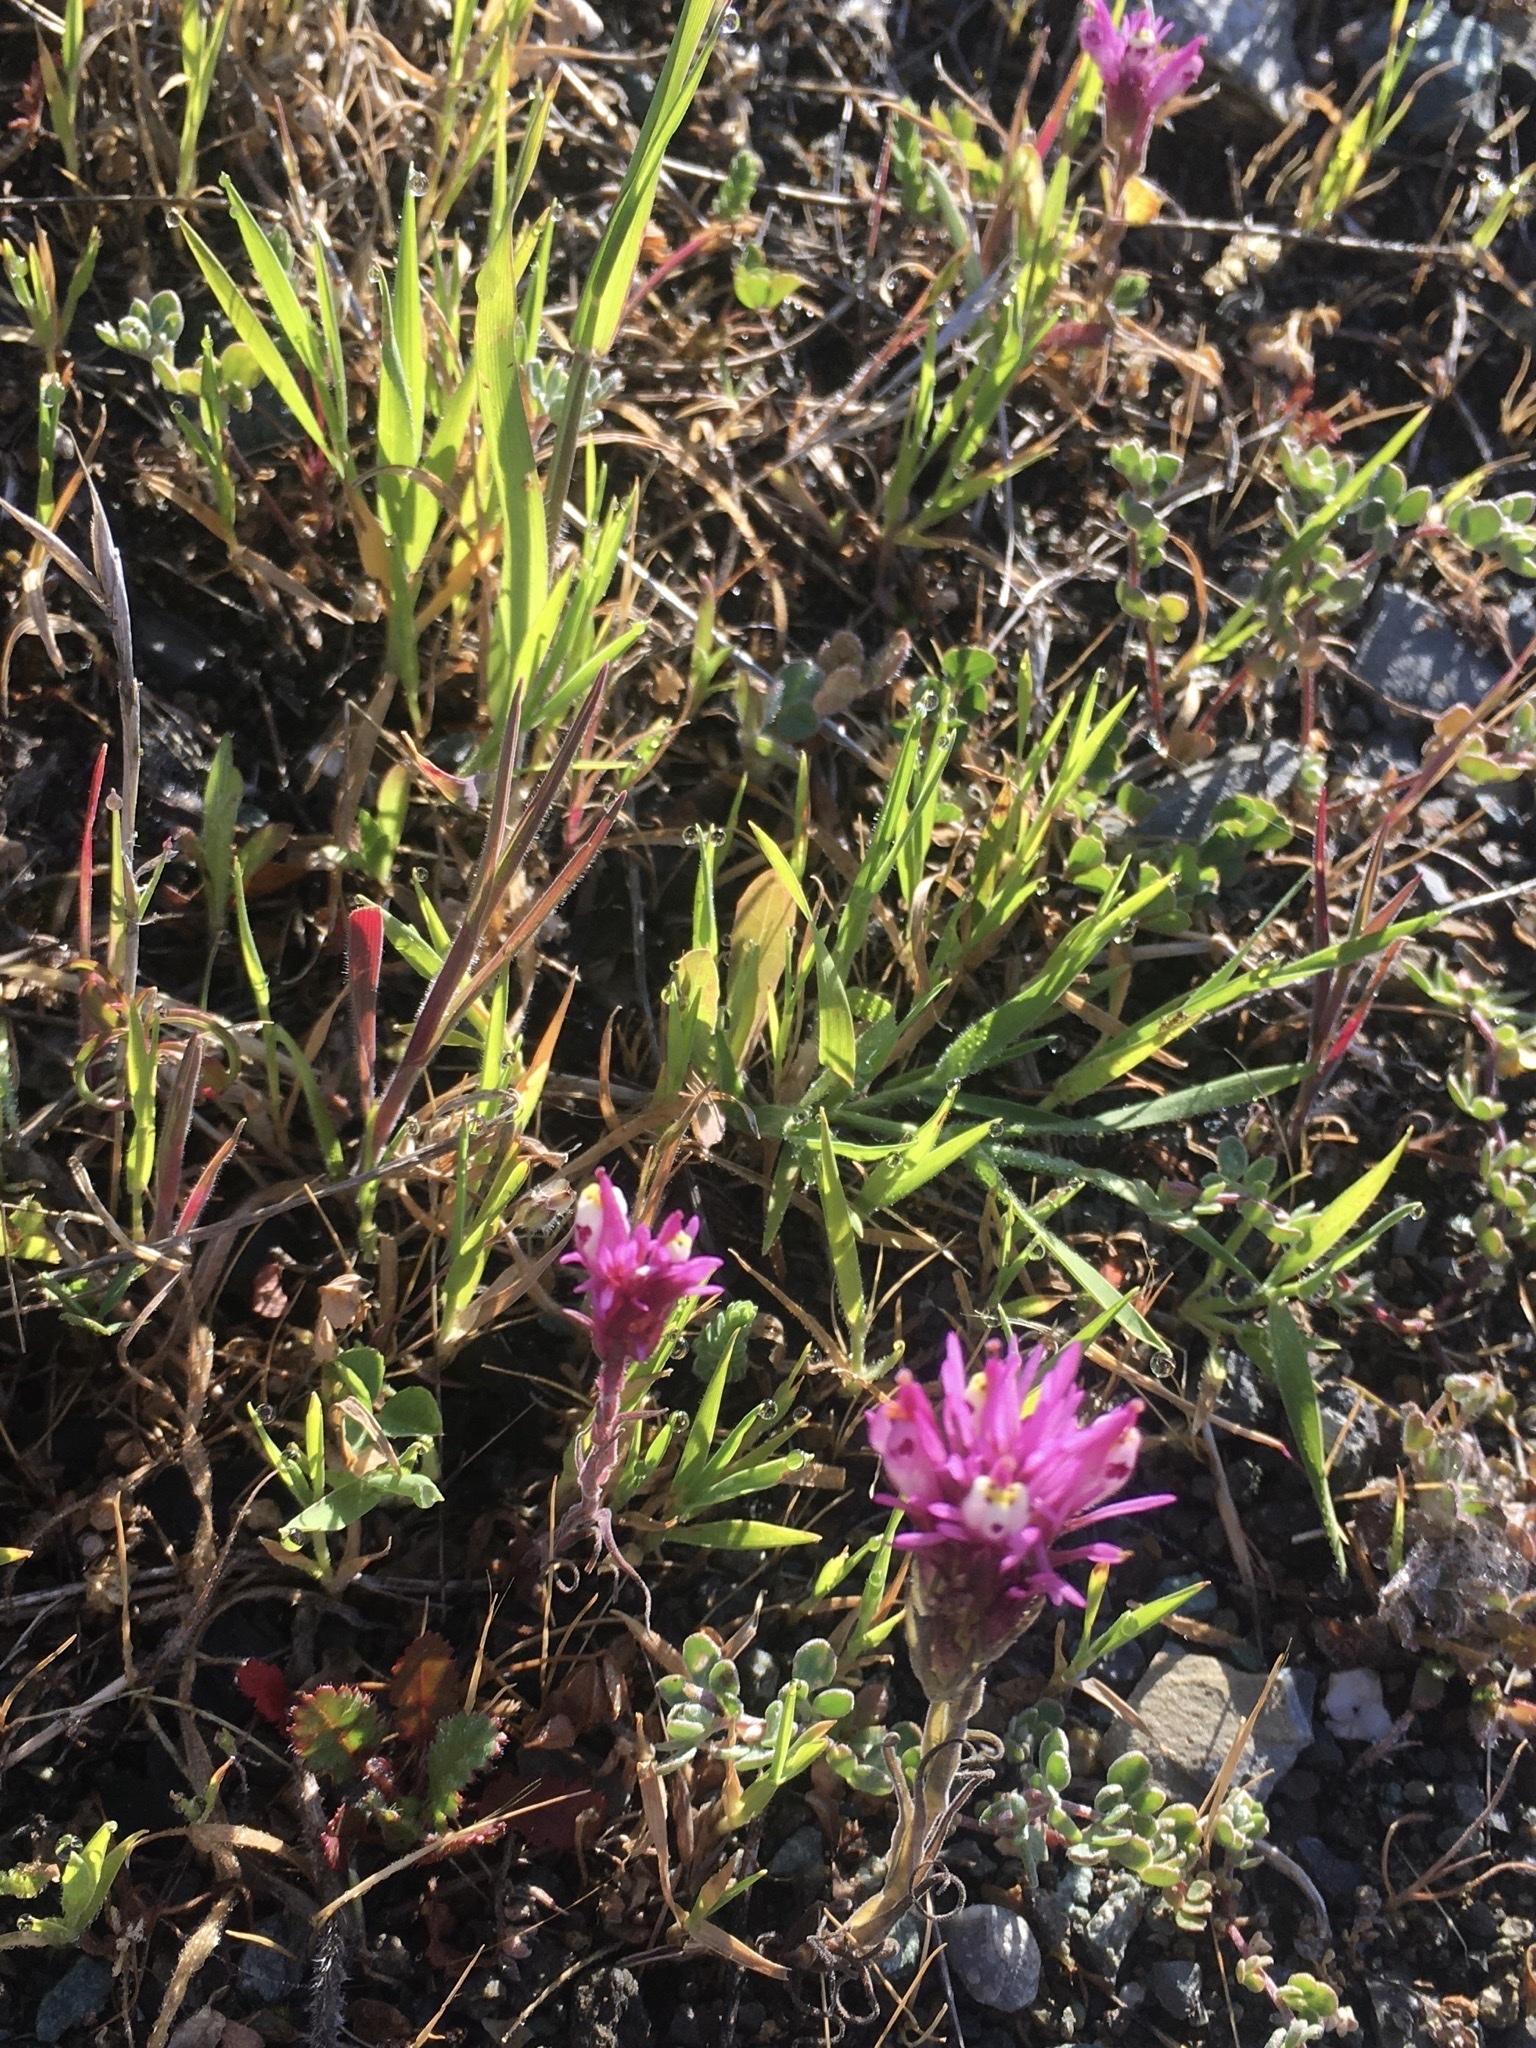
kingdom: Plantae
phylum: Tracheophyta
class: Magnoliopsida
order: Lamiales
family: Orobanchaceae
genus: Castilleja
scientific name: Castilleja densiflora
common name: Dense-flower indian paintbrush
